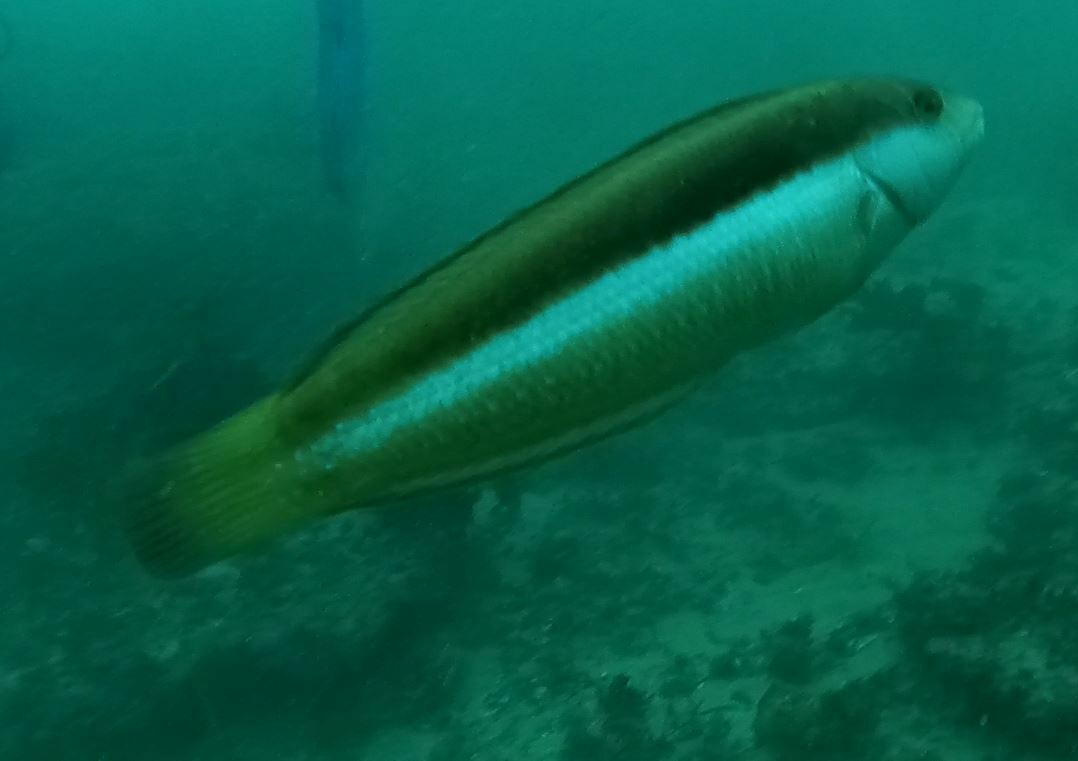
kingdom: Animalia
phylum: Chordata
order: Perciformes
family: Labridae
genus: Ophthalmolepis
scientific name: Ophthalmolepis lineolata
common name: Maori wrasse
